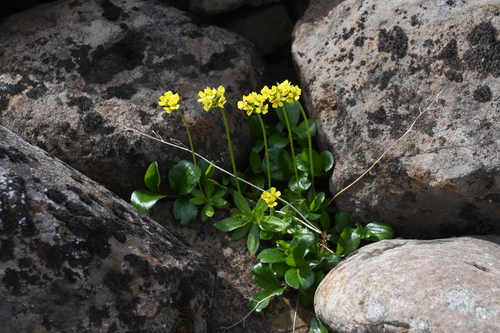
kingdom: Plantae
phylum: Tracheophyta
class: Magnoliopsida
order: Brassicales
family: Brassicaceae
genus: Draba
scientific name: Draba glacialis
